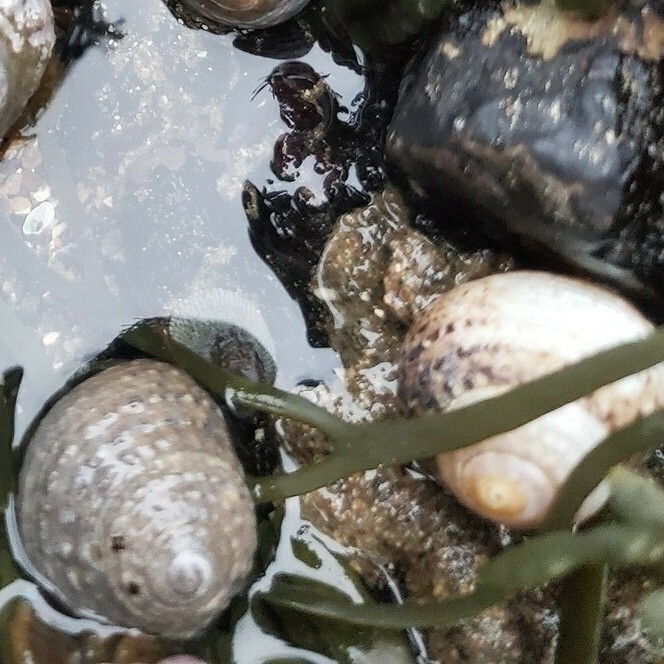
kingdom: Animalia
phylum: Mollusca
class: Gastropoda
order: Trochida
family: Tegulidae
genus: Tegula
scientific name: Tegula eiseni
